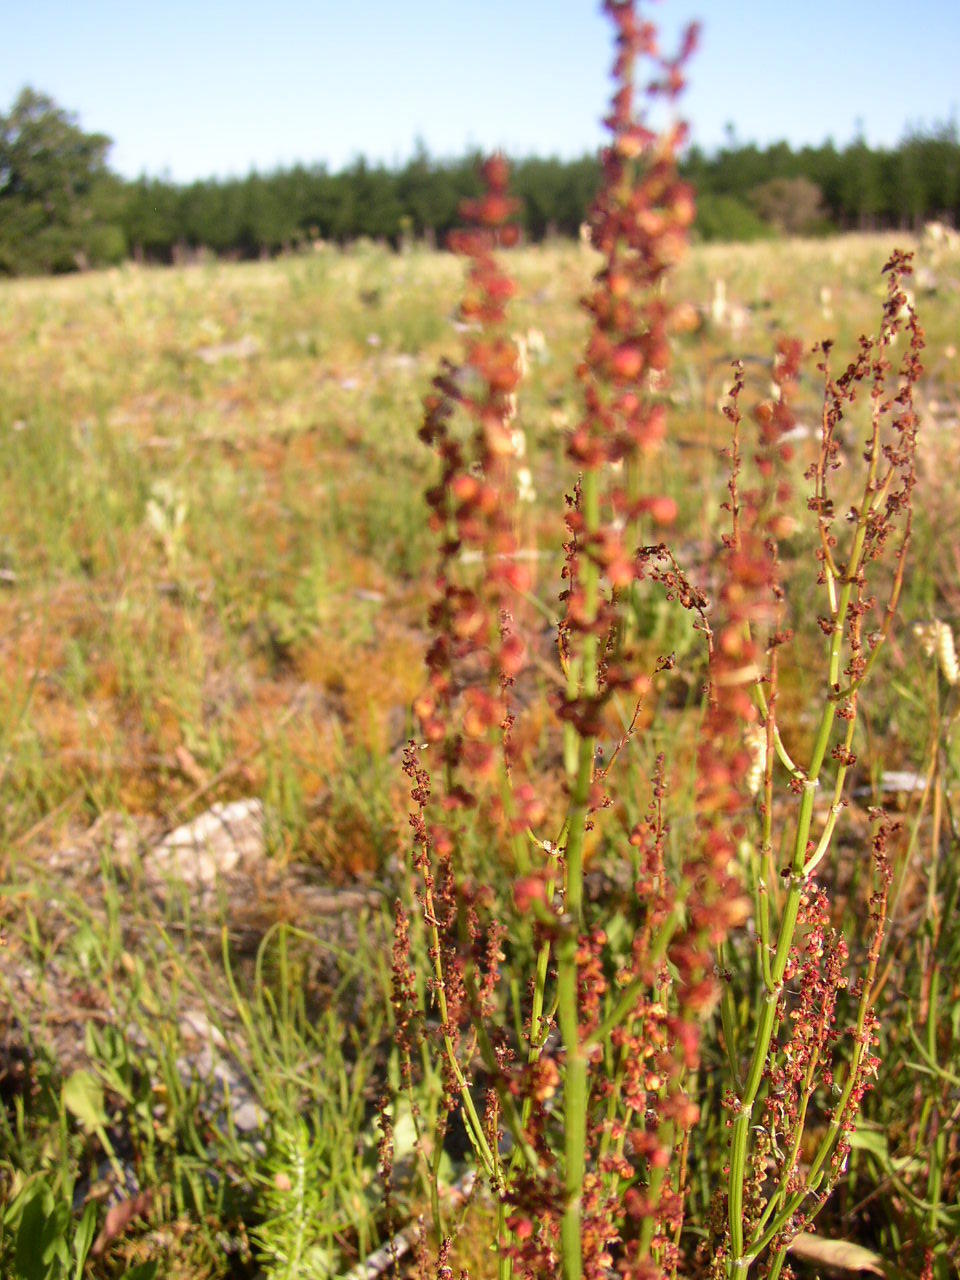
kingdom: Plantae
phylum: Tracheophyta
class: Magnoliopsida
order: Caryophyllales
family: Polygonaceae
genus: Rumex
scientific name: Rumex acetosella
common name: Common sheep sorrel
